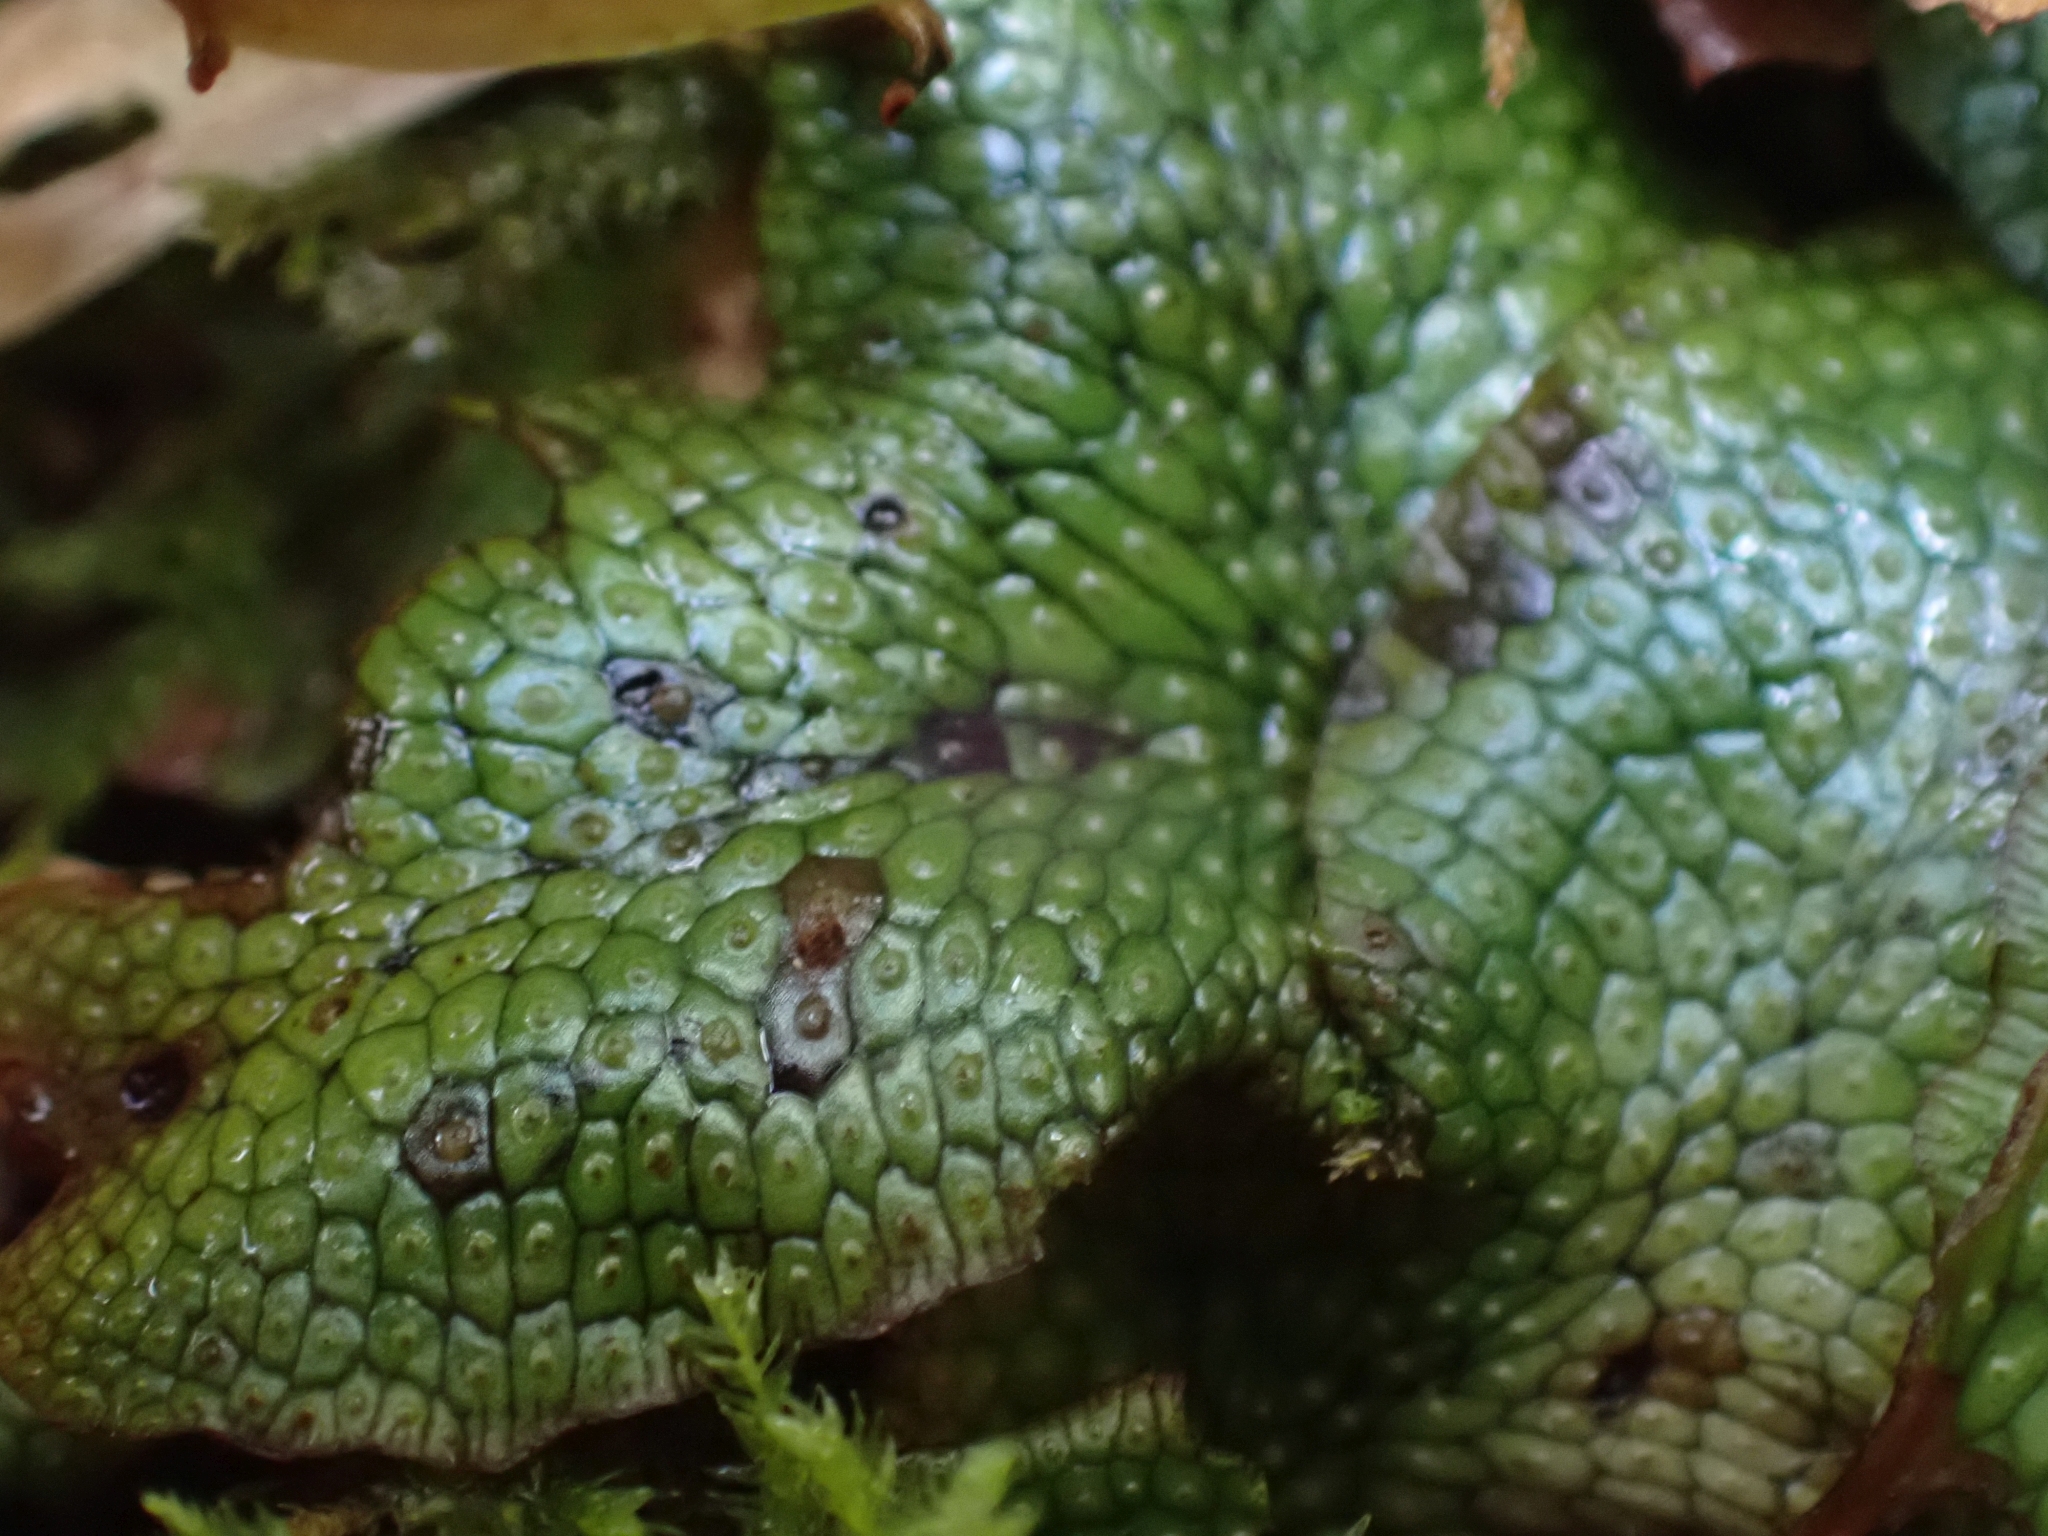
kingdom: Plantae
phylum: Marchantiophyta
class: Marchantiopsida
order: Marchantiales
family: Conocephalaceae
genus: Conocephalum
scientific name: Conocephalum salebrosum
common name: Cat-tongue liverwort
